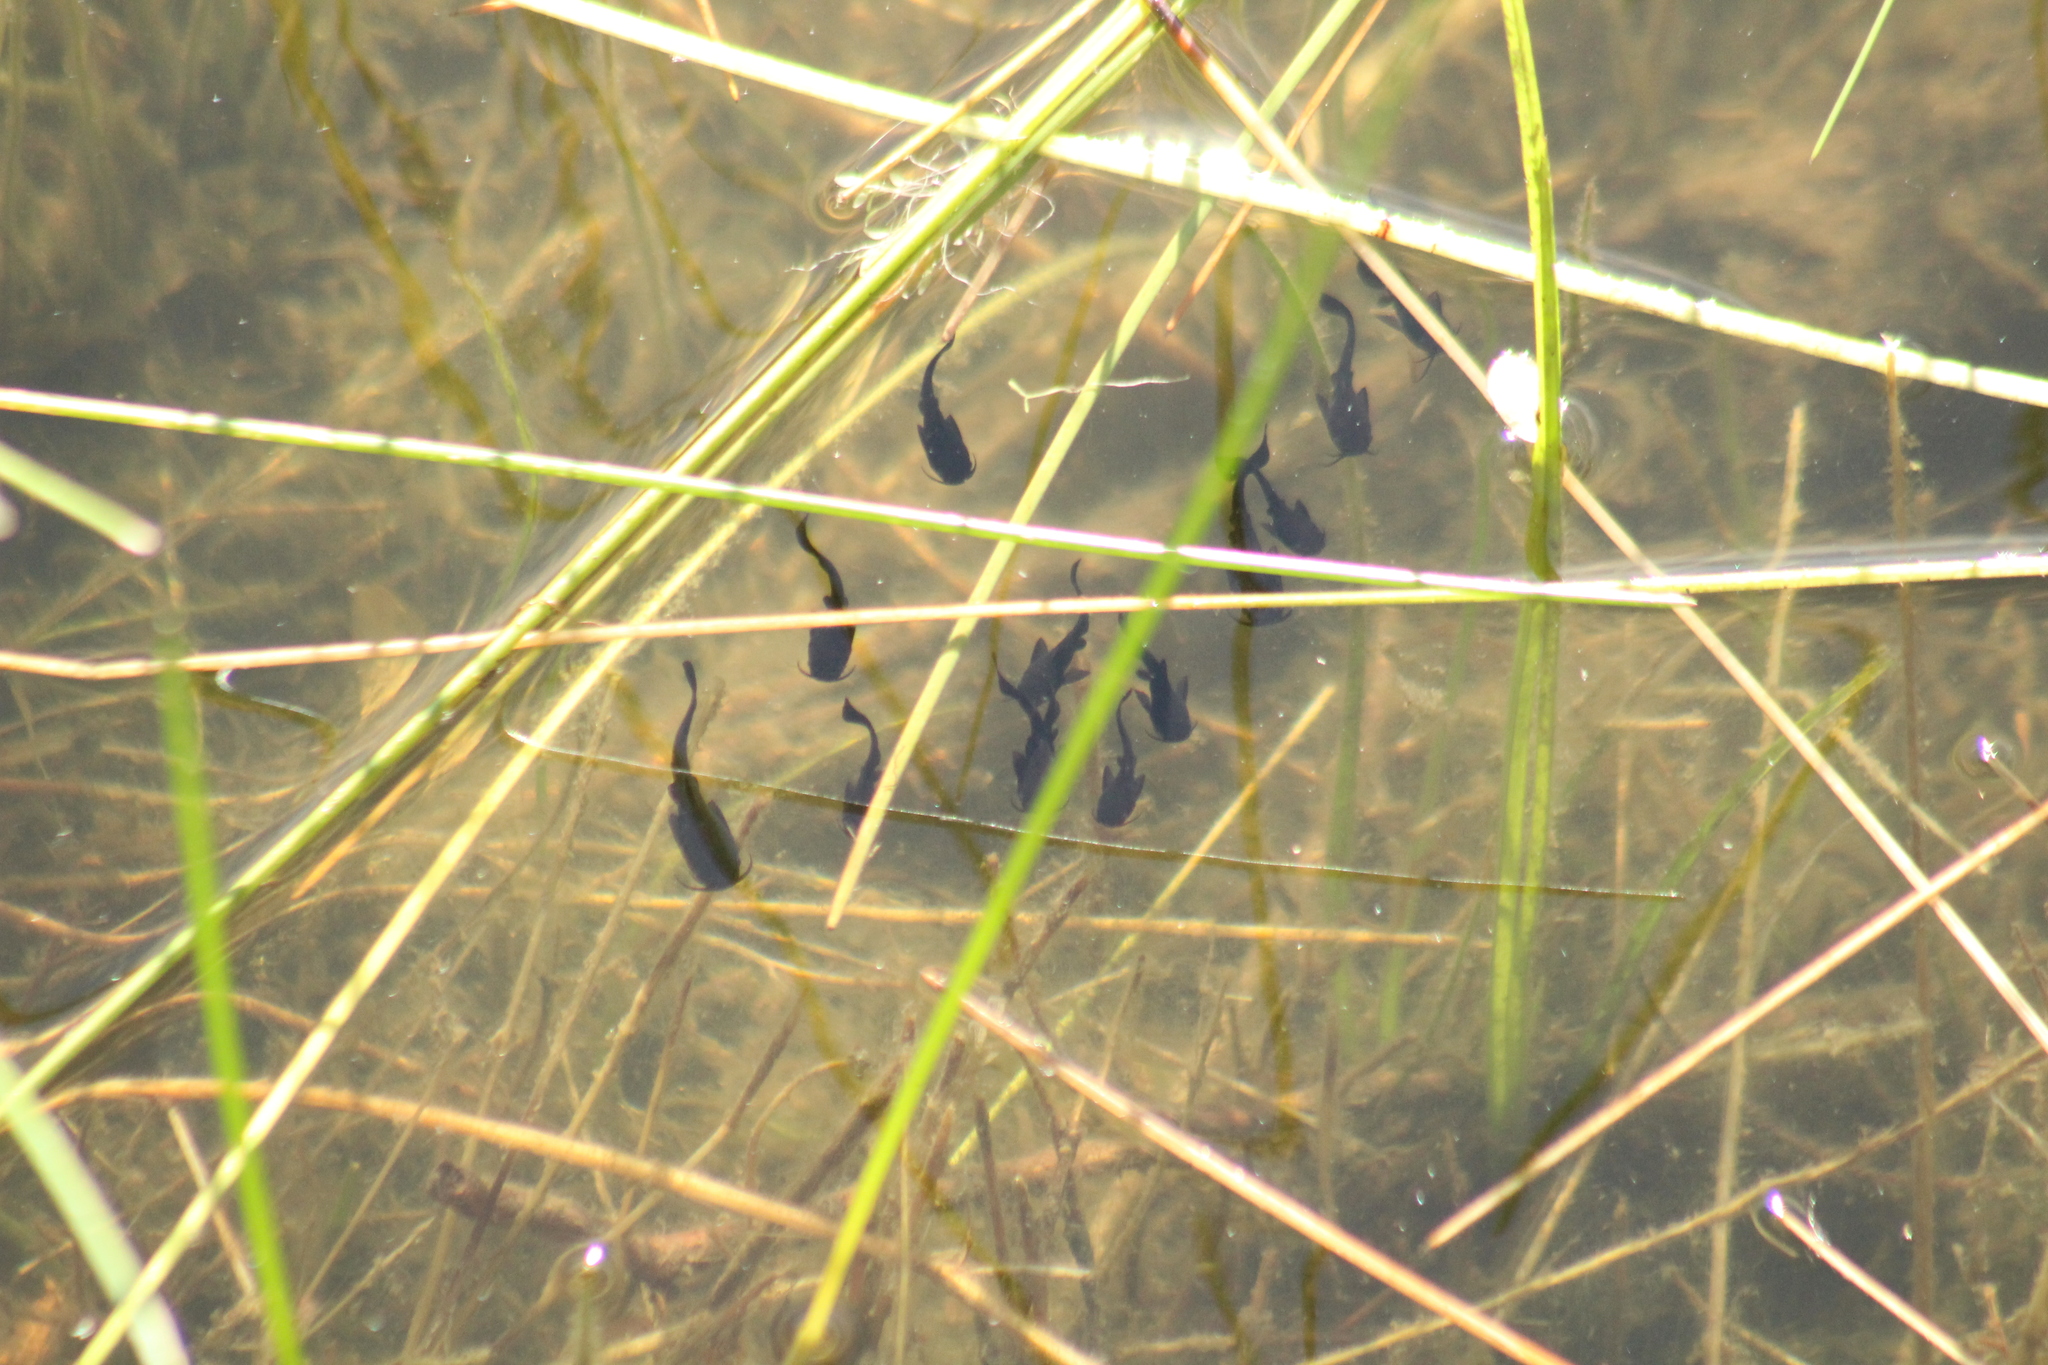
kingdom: Animalia
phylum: Chordata
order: Siluriformes
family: Ictaluridae
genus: Ameiurus
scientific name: Ameiurus melas
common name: Black bullhead
